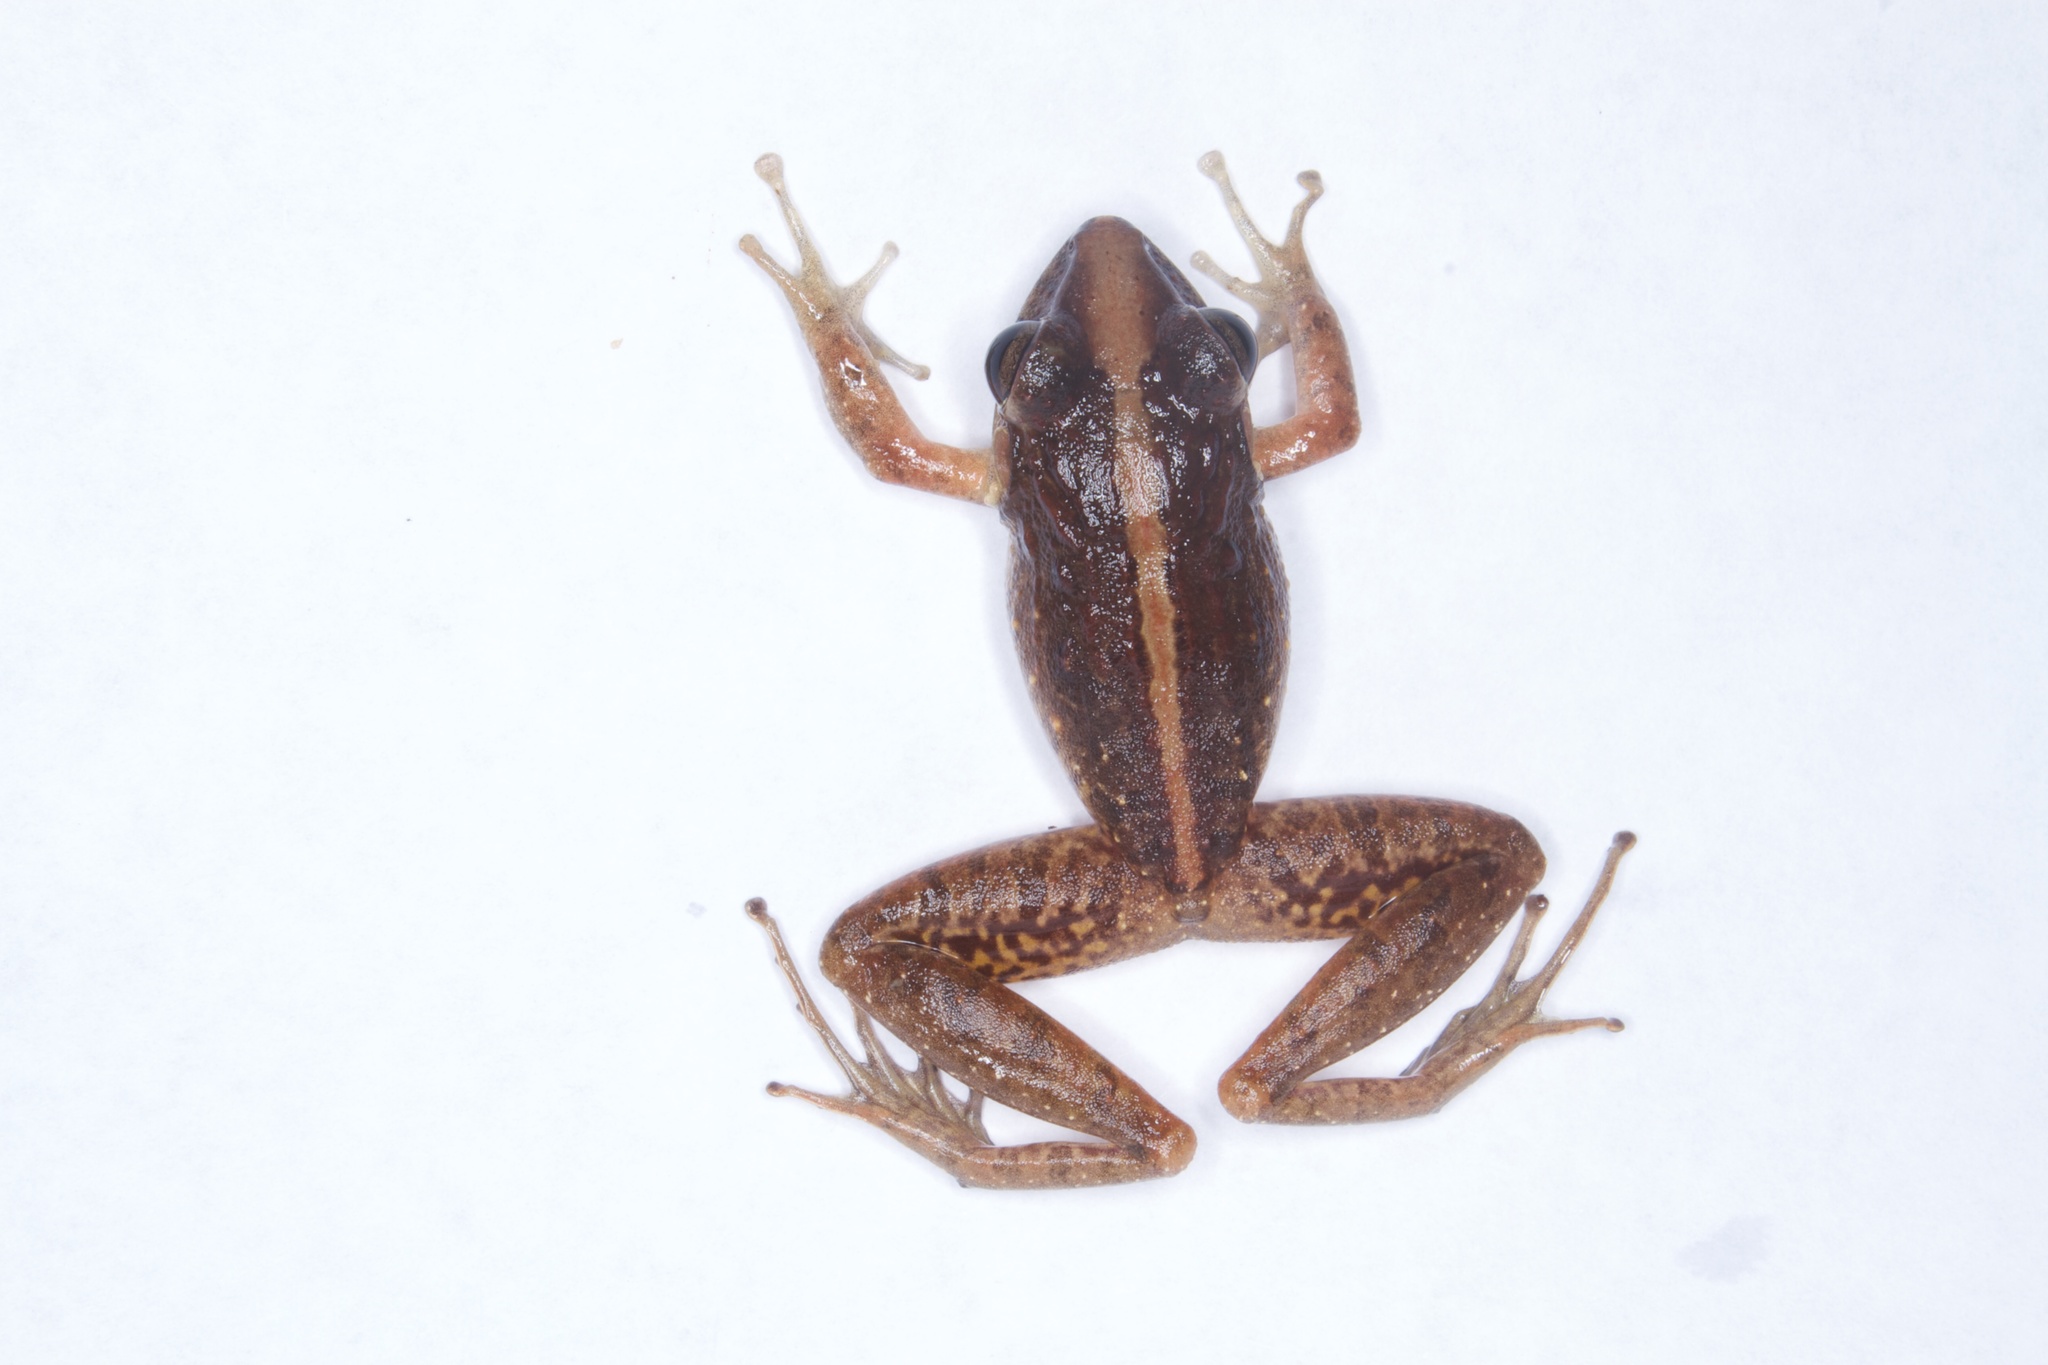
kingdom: Animalia
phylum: Chordata
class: Amphibia
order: Anura
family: Craugastoridae
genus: Craugastor
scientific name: Craugastor fitzingeri
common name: Fitzinger's robber frog
